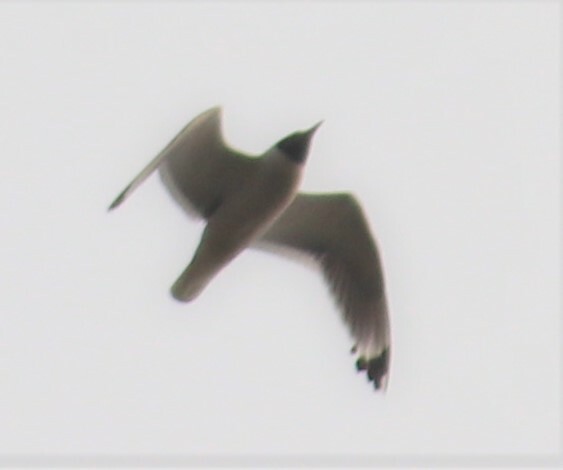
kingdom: Animalia
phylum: Chordata
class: Aves
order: Charadriiformes
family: Laridae
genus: Leucophaeus
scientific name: Leucophaeus pipixcan
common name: Franklin's gull
